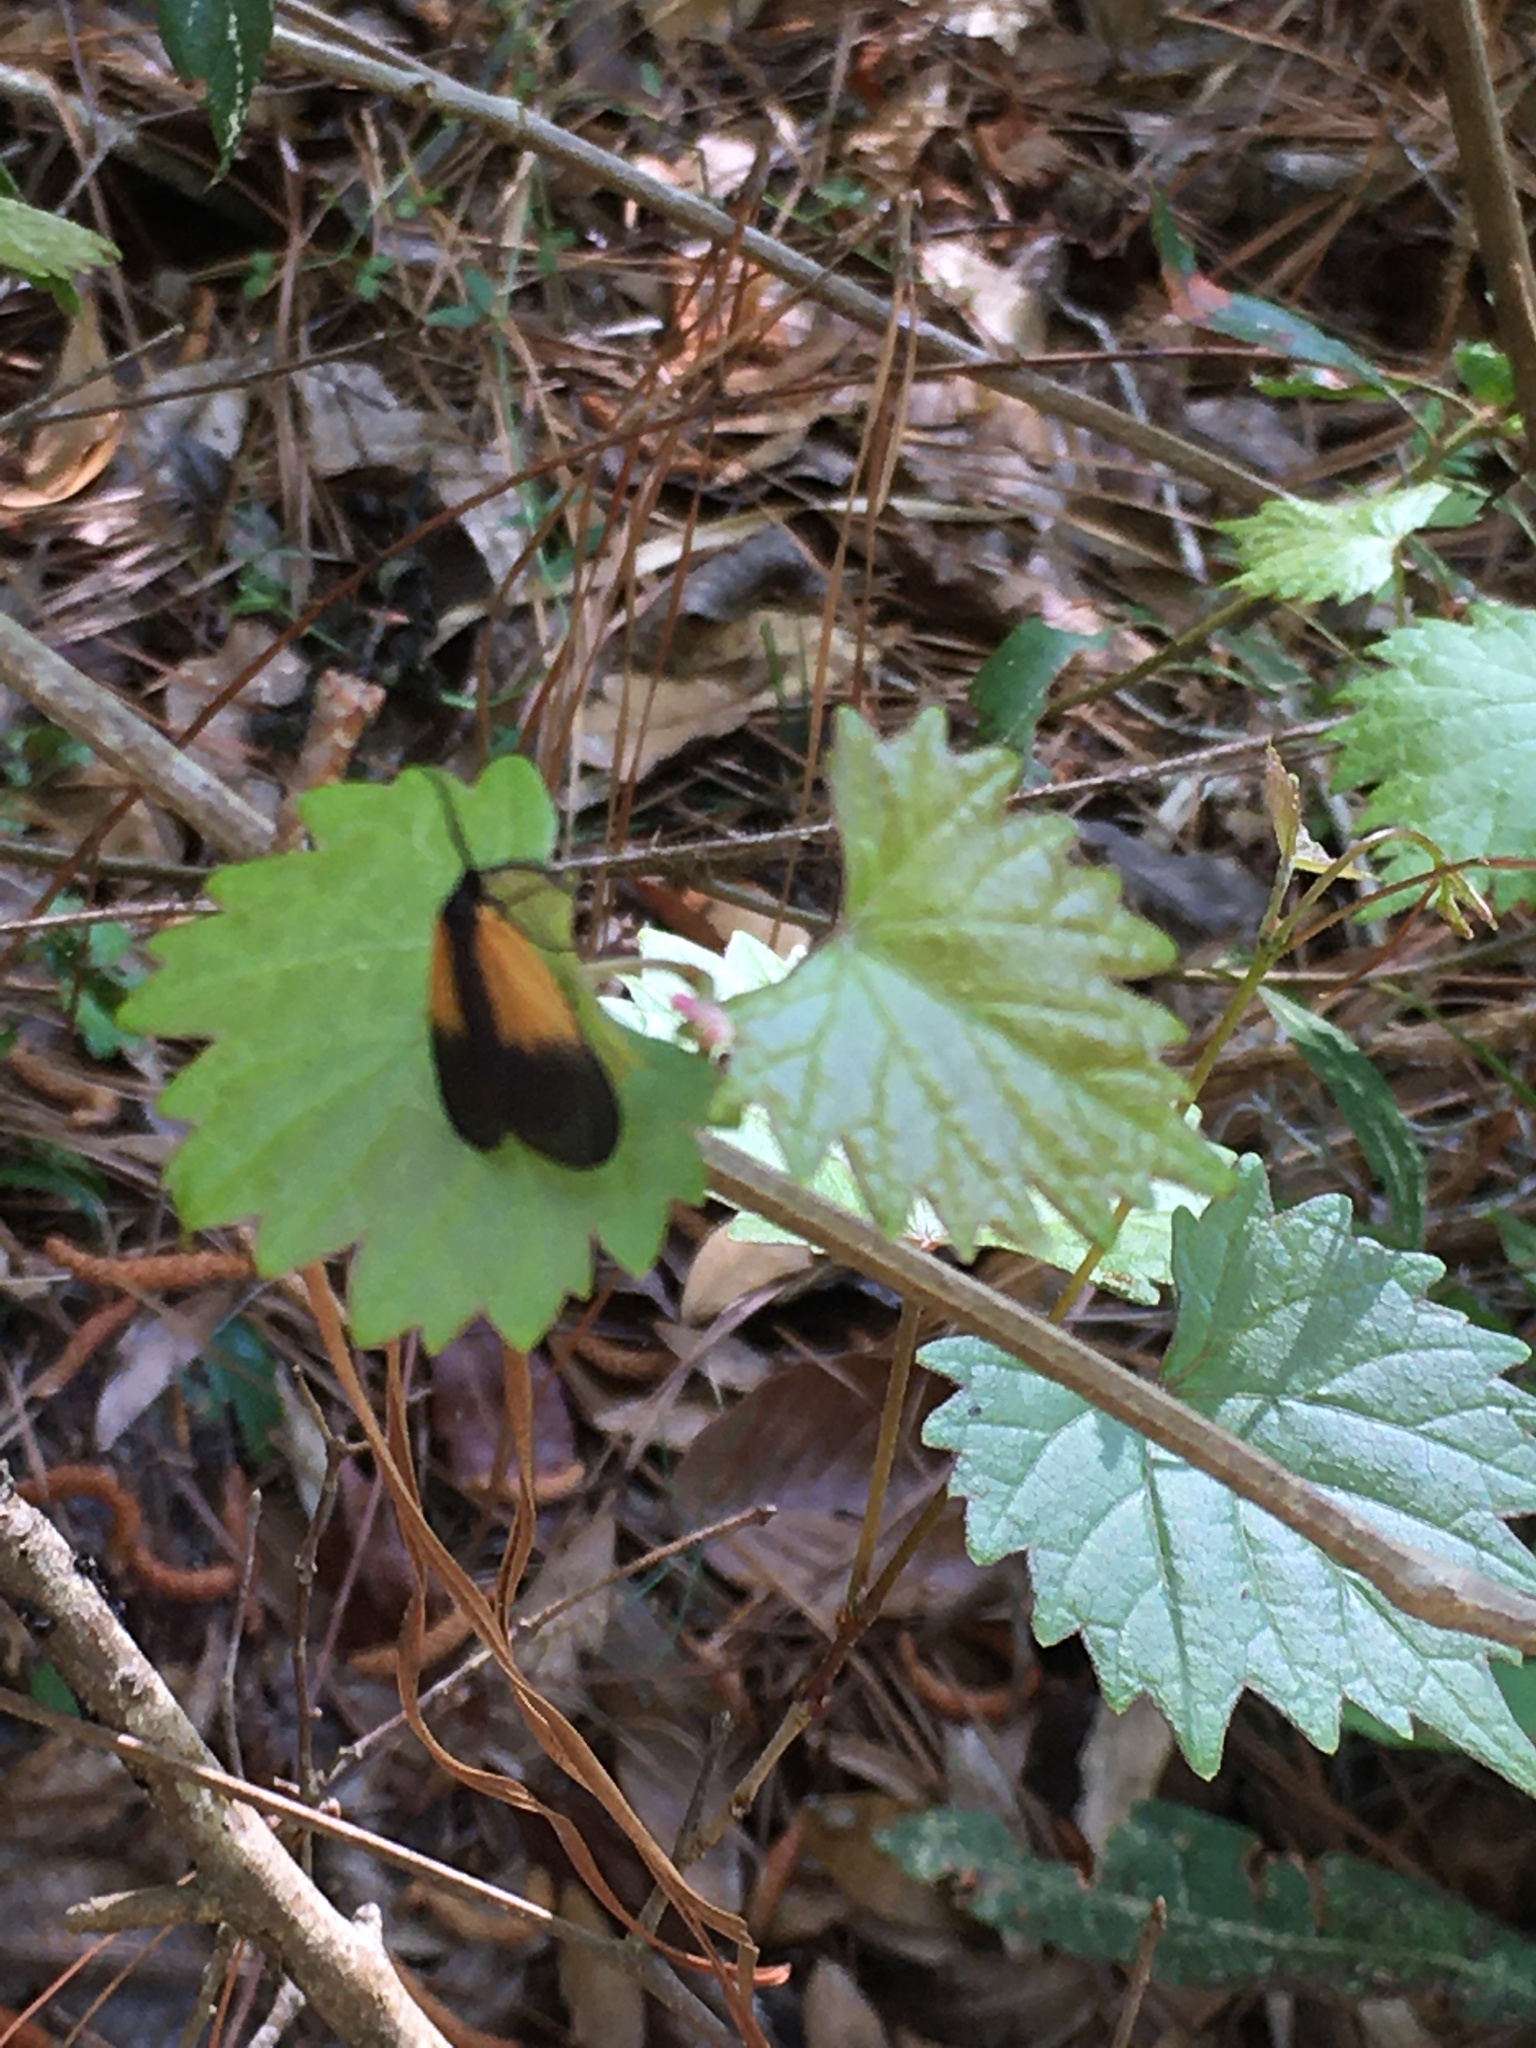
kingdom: Animalia
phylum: Arthropoda
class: Insecta
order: Lepidoptera
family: Zygaenidae
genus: Malthaca
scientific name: Malthaca dimidiata
